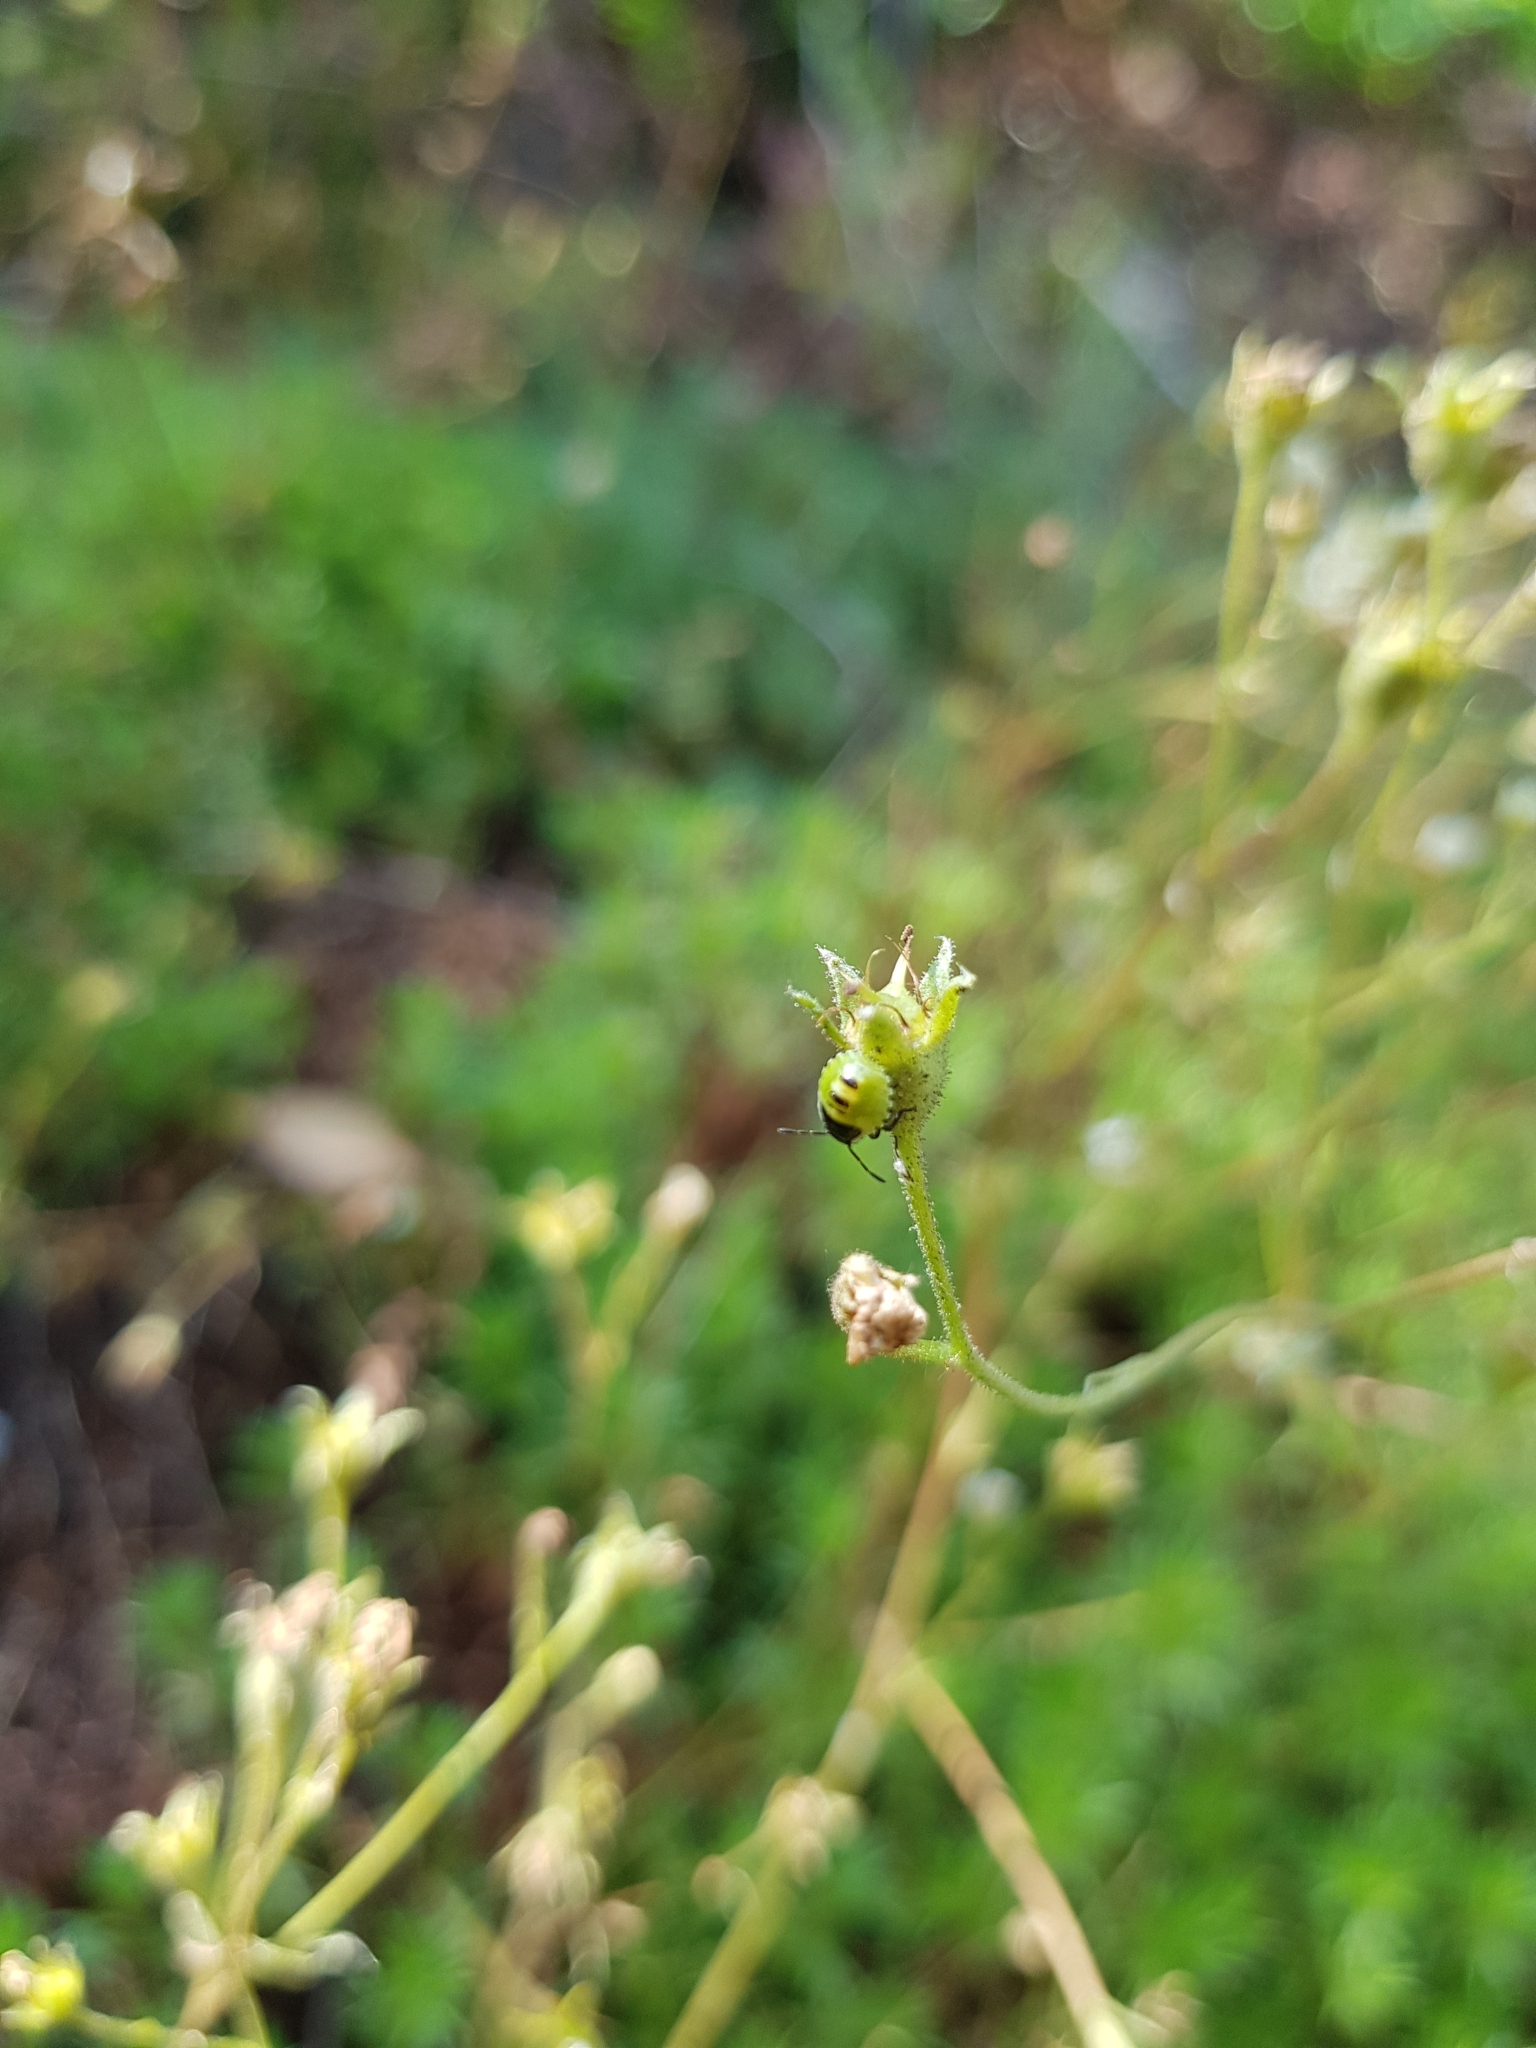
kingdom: Animalia
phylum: Arthropoda
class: Insecta
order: Hemiptera
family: Pentatomidae
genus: Palomena
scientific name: Palomena prasina
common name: Green shieldbug
